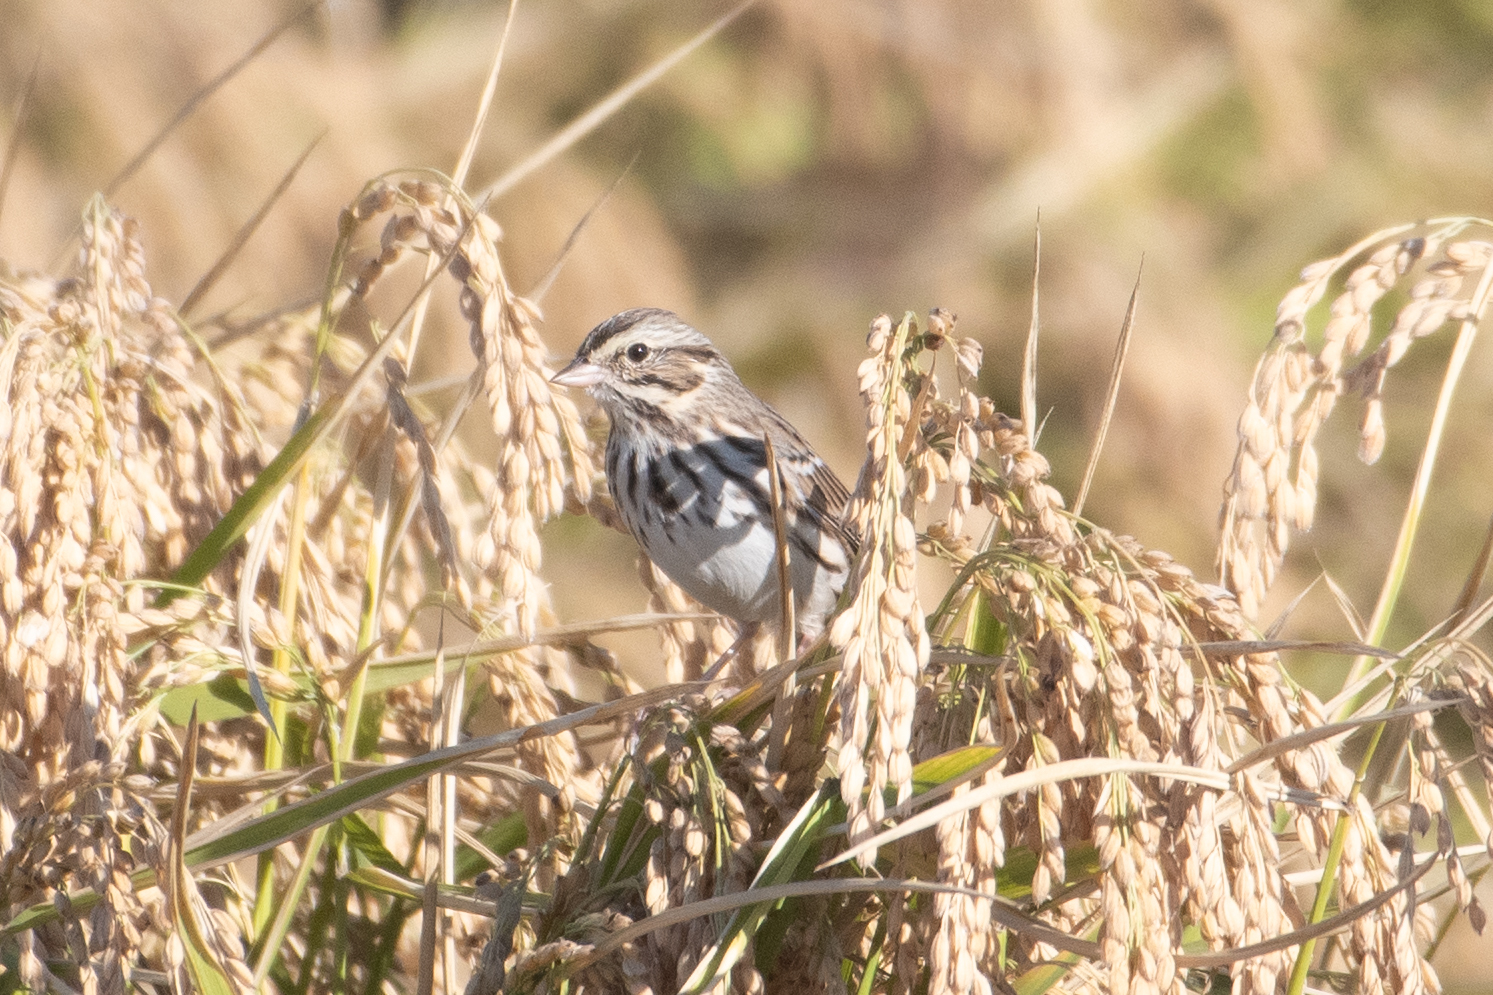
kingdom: Animalia
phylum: Chordata
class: Aves
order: Passeriformes
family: Passerellidae
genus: Passerculus
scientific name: Passerculus sandwichensis
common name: Savannah sparrow
